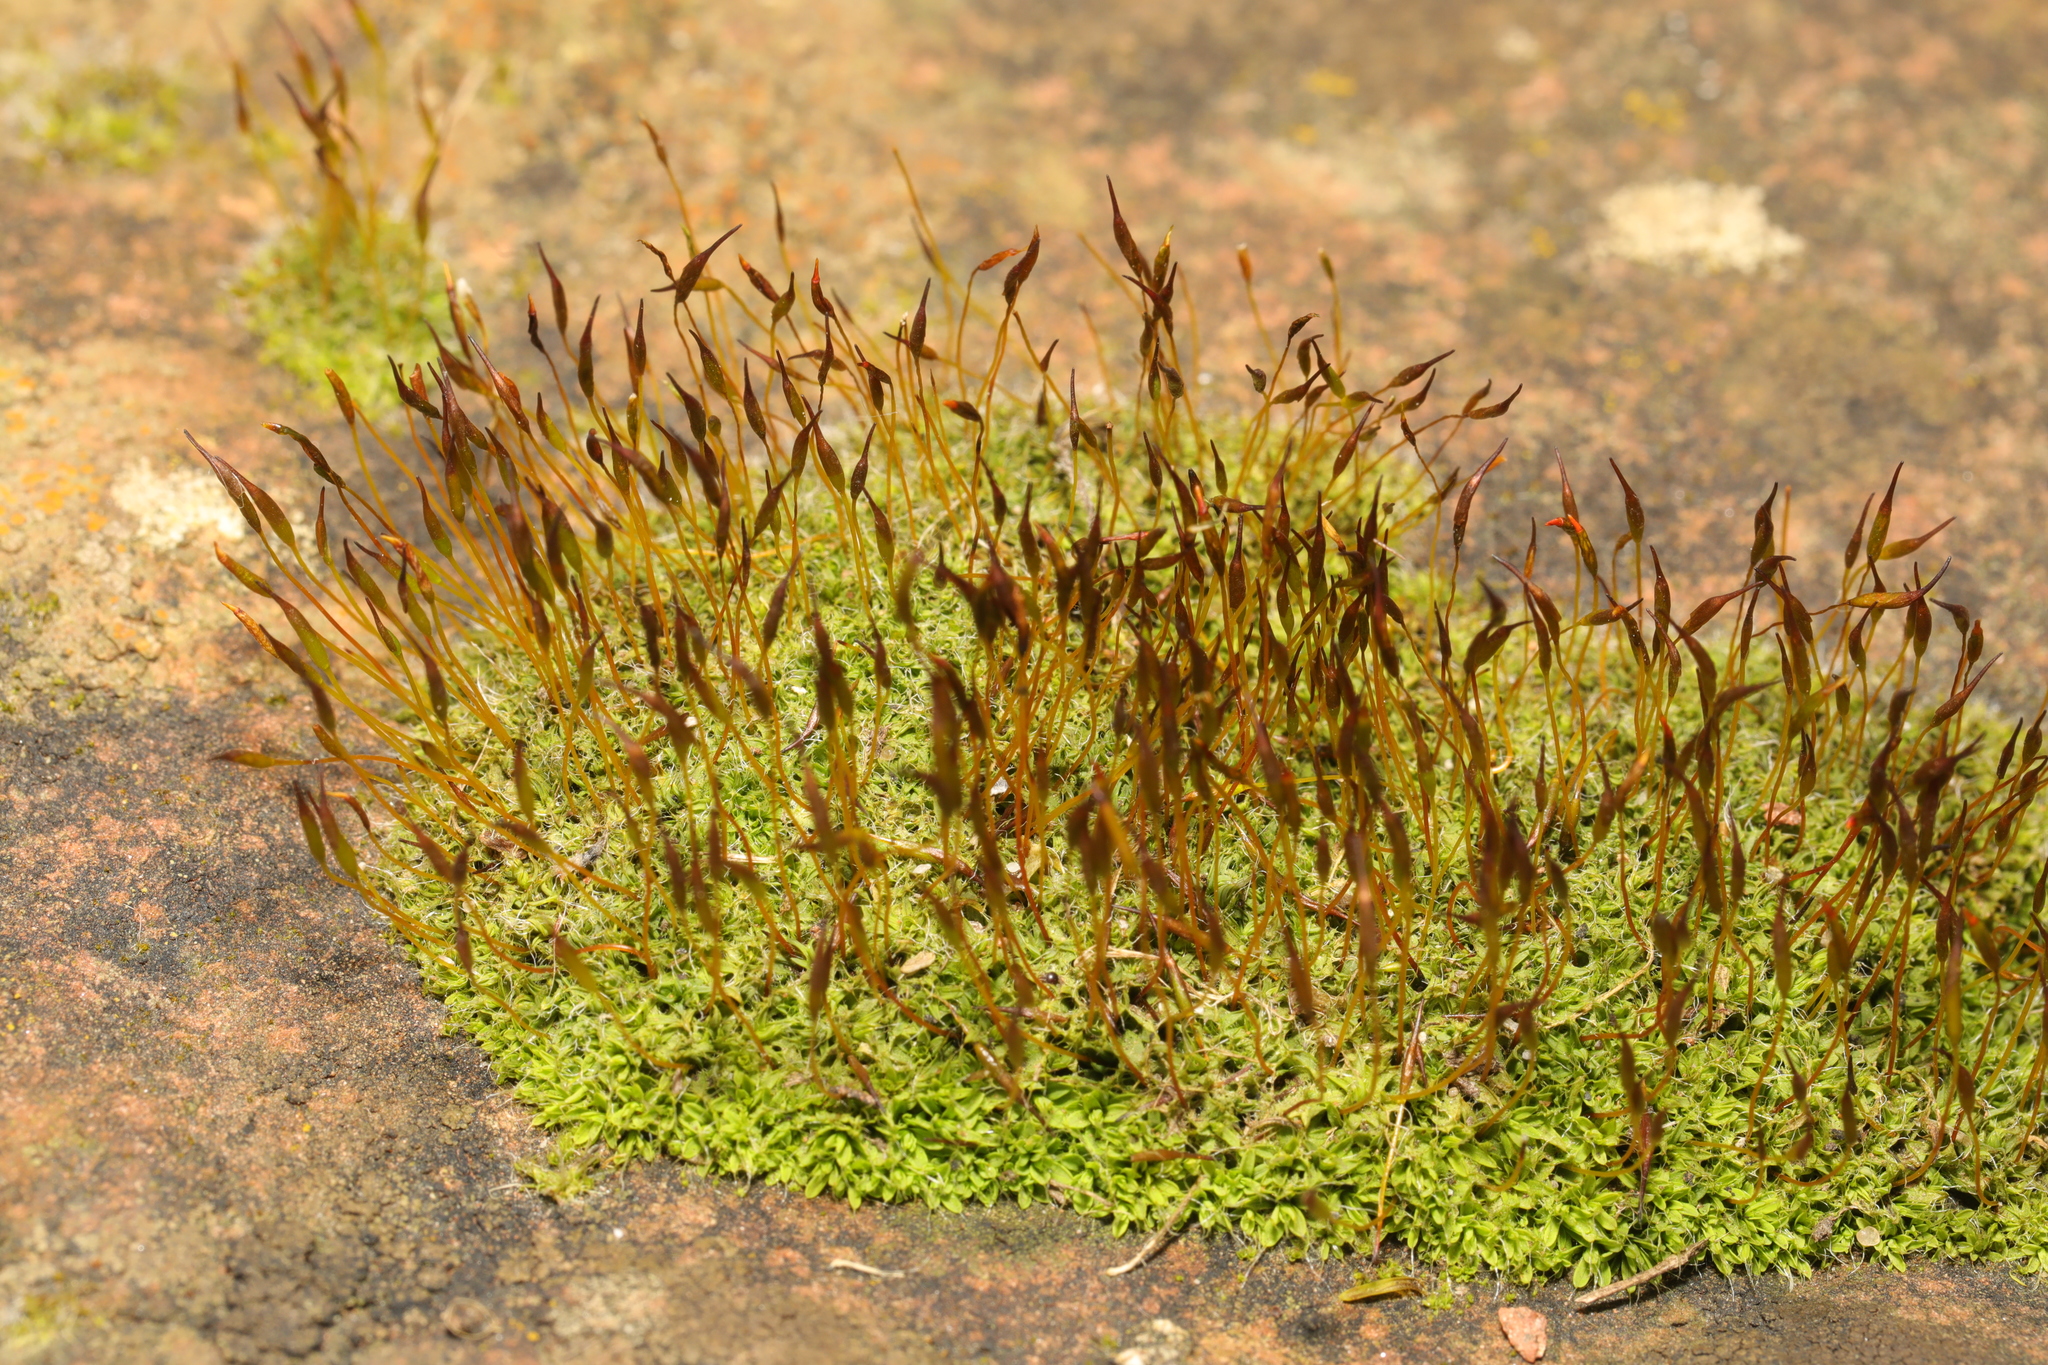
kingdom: Plantae
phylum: Bryophyta
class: Bryopsida
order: Pottiales
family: Pottiaceae
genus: Tortula
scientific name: Tortula muralis
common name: Wall screw-moss
